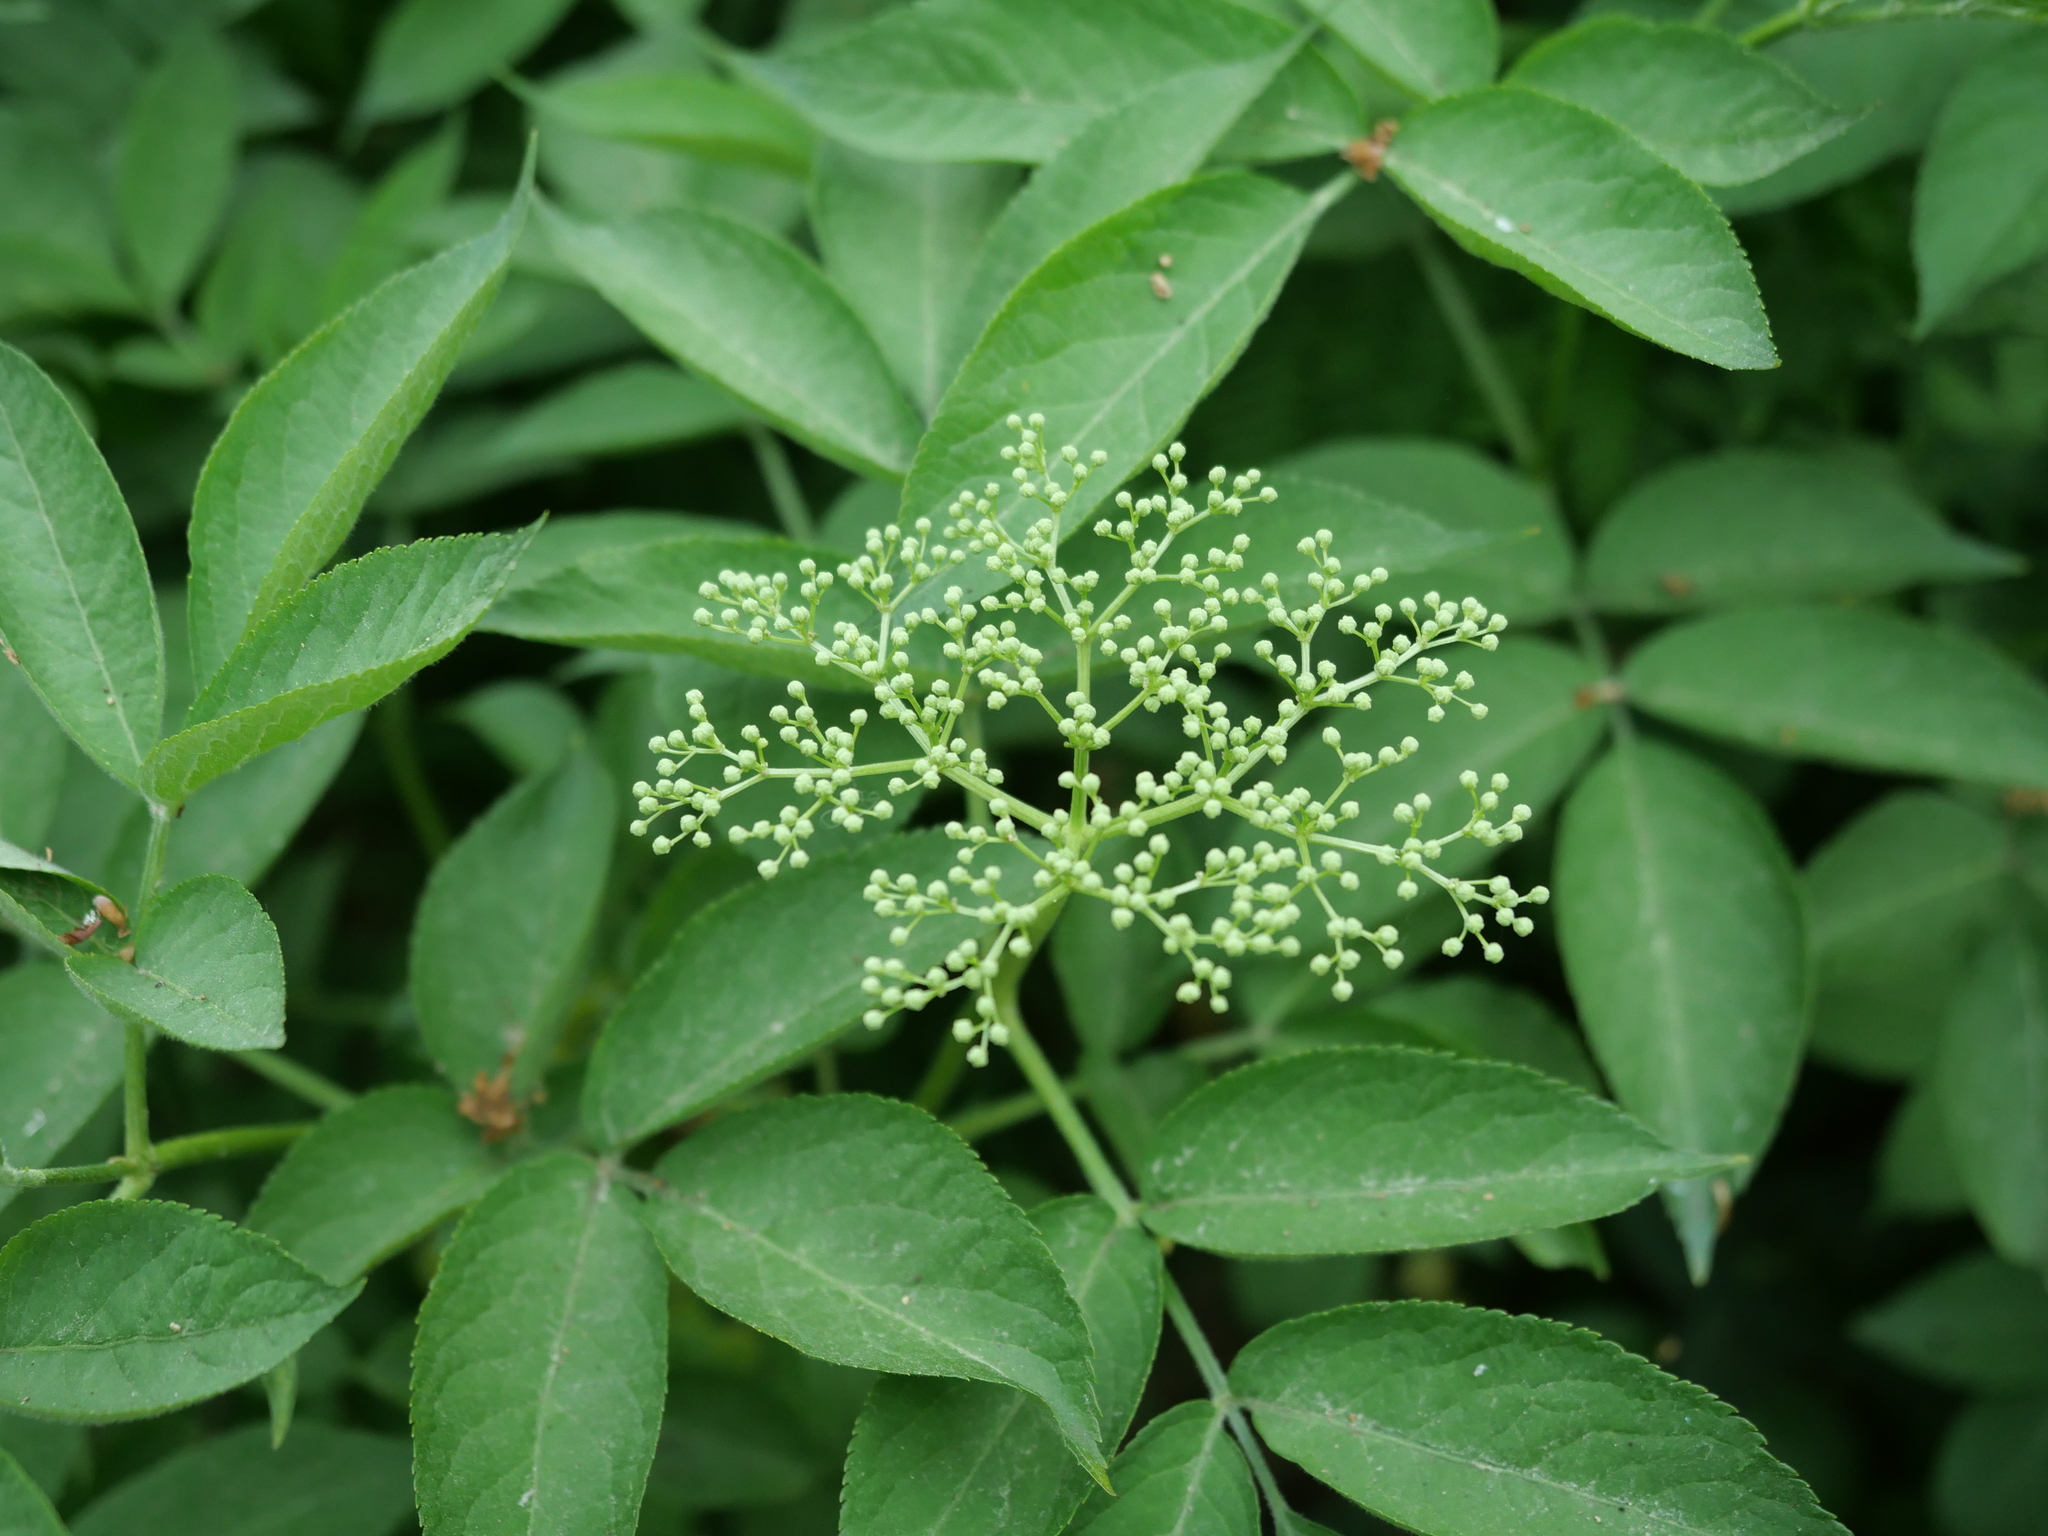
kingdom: Plantae
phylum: Tracheophyta
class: Magnoliopsida
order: Dipsacales
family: Viburnaceae
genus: Sambucus
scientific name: Sambucus nigra
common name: Elder
